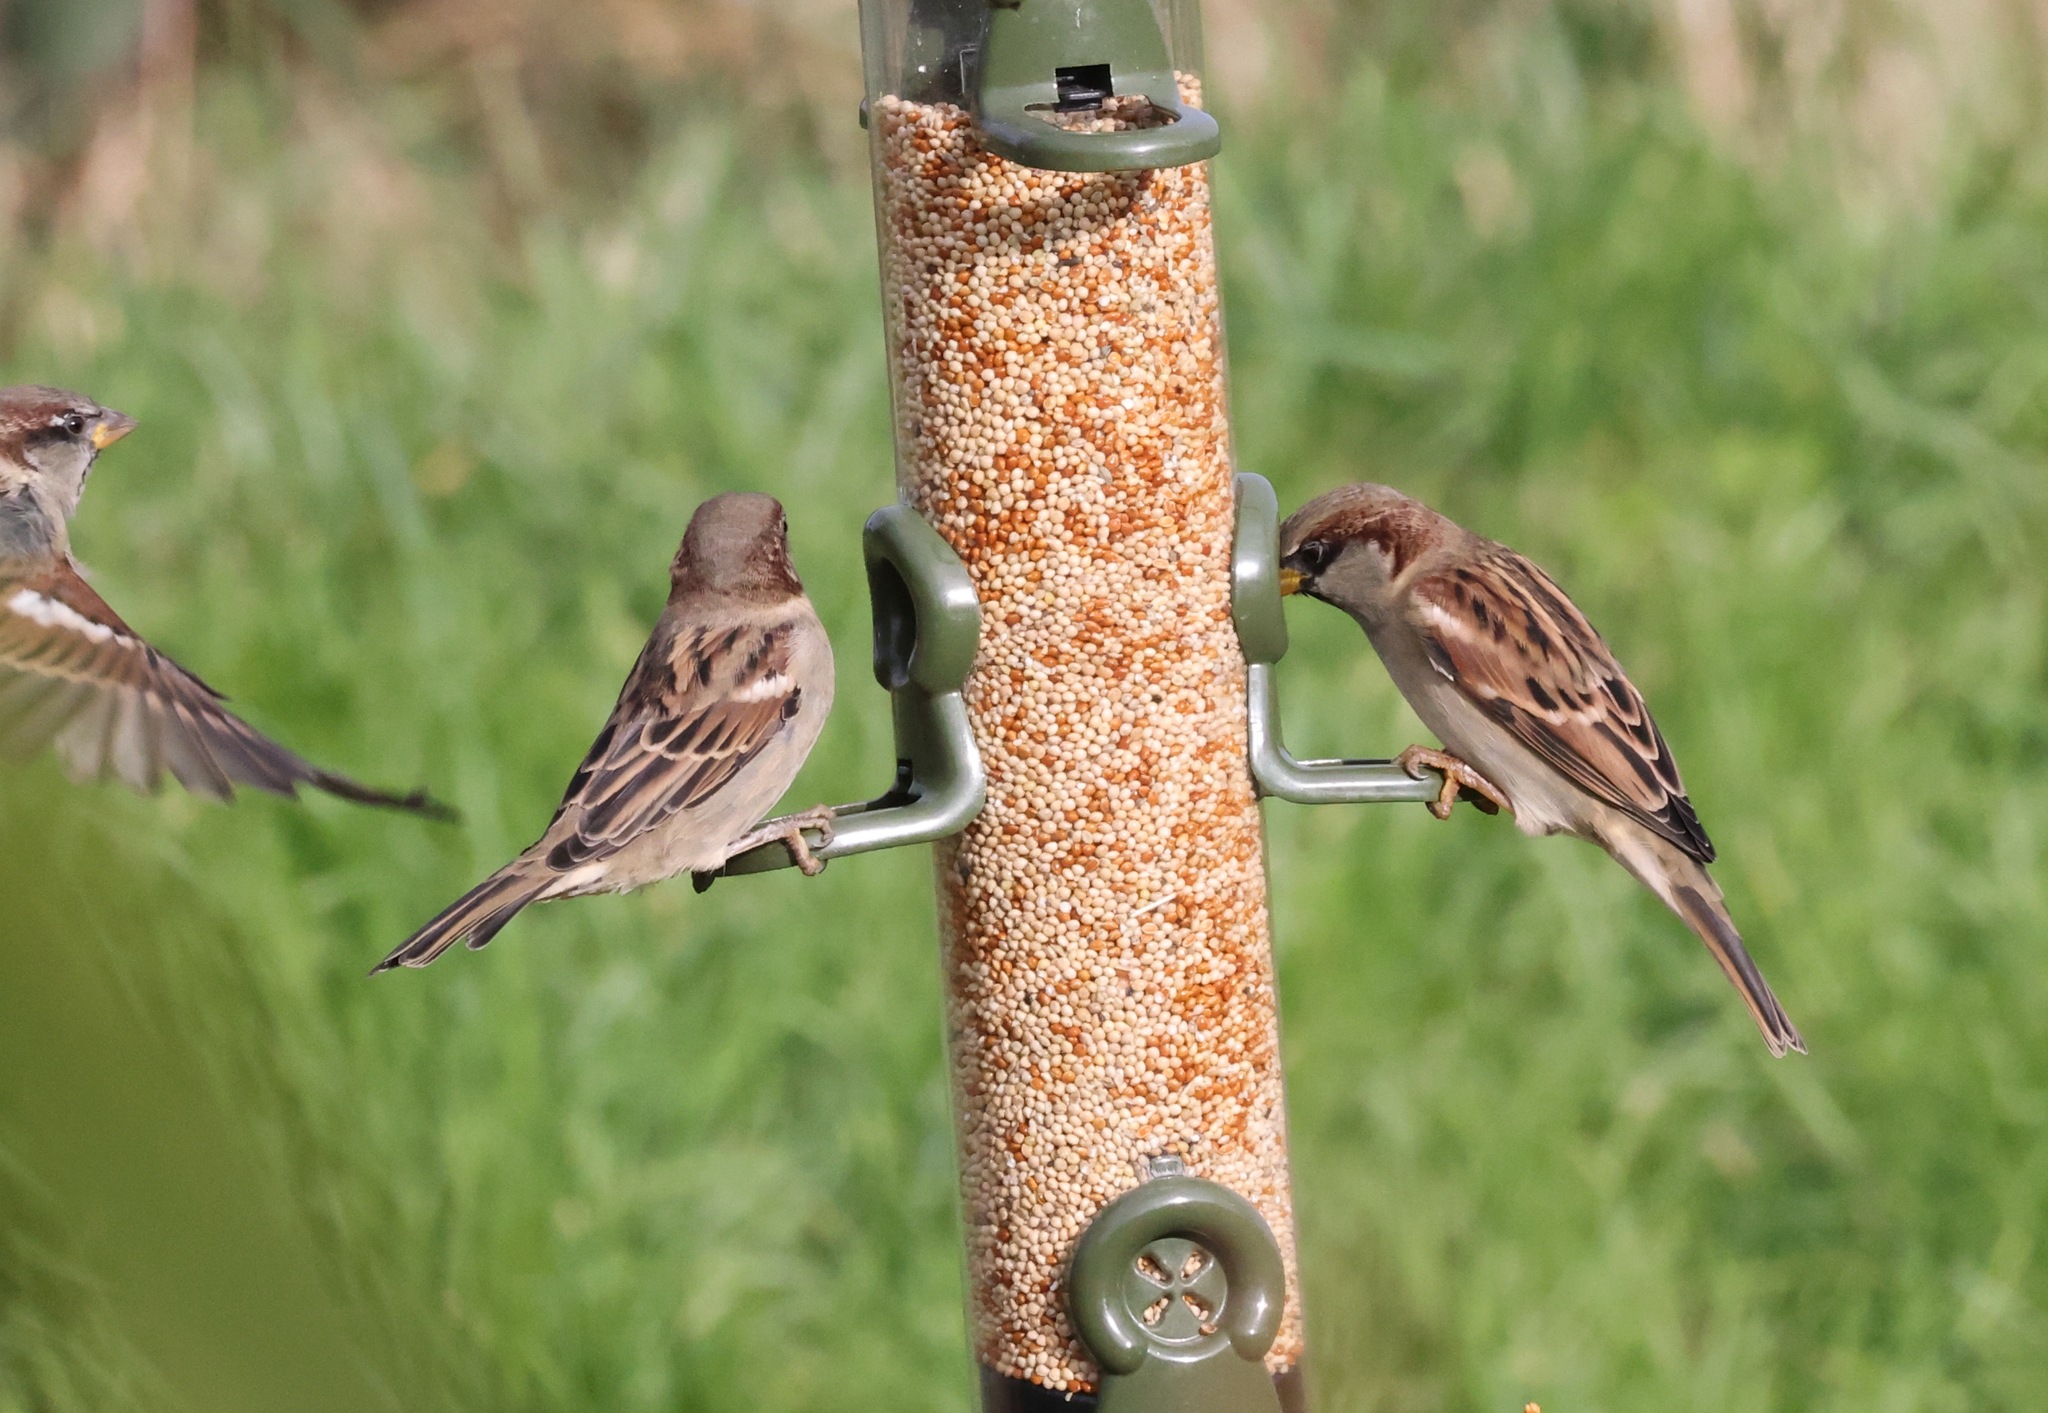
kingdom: Animalia
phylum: Chordata
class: Aves
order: Passeriformes
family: Passeridae
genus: Passer
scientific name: Passer domesticus
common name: House sparrow
